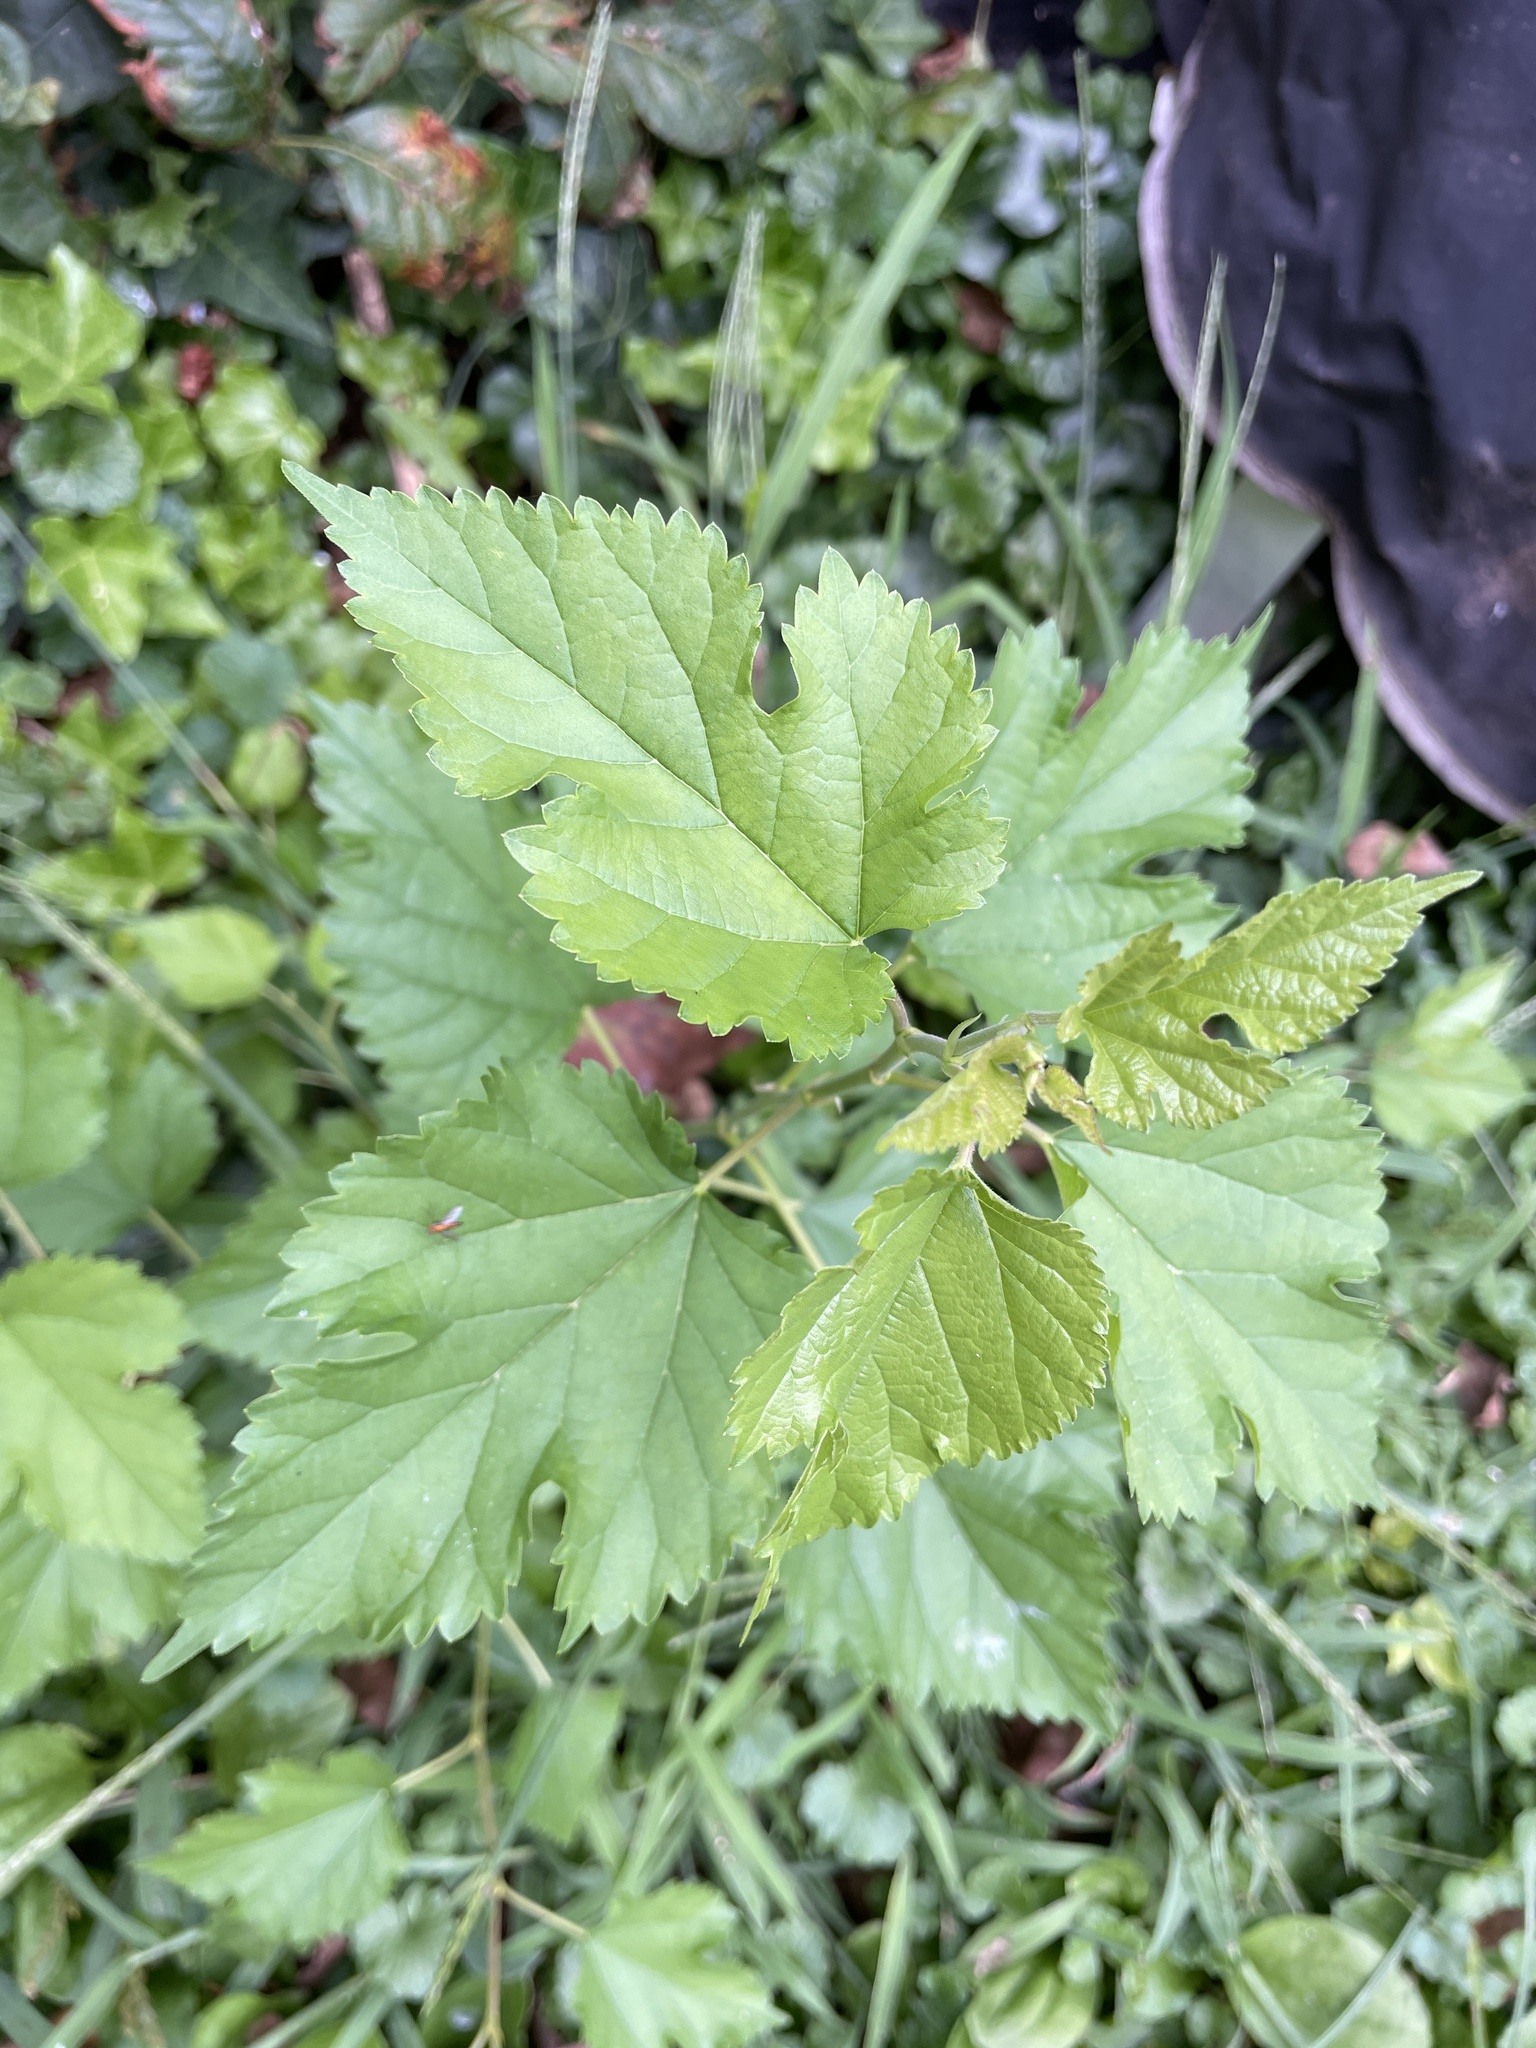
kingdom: Plantae
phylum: Tracheophyta
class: Magnoliopsida
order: Rosales
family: Moraceae
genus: Morus
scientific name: Morus alba
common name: White mulberry
